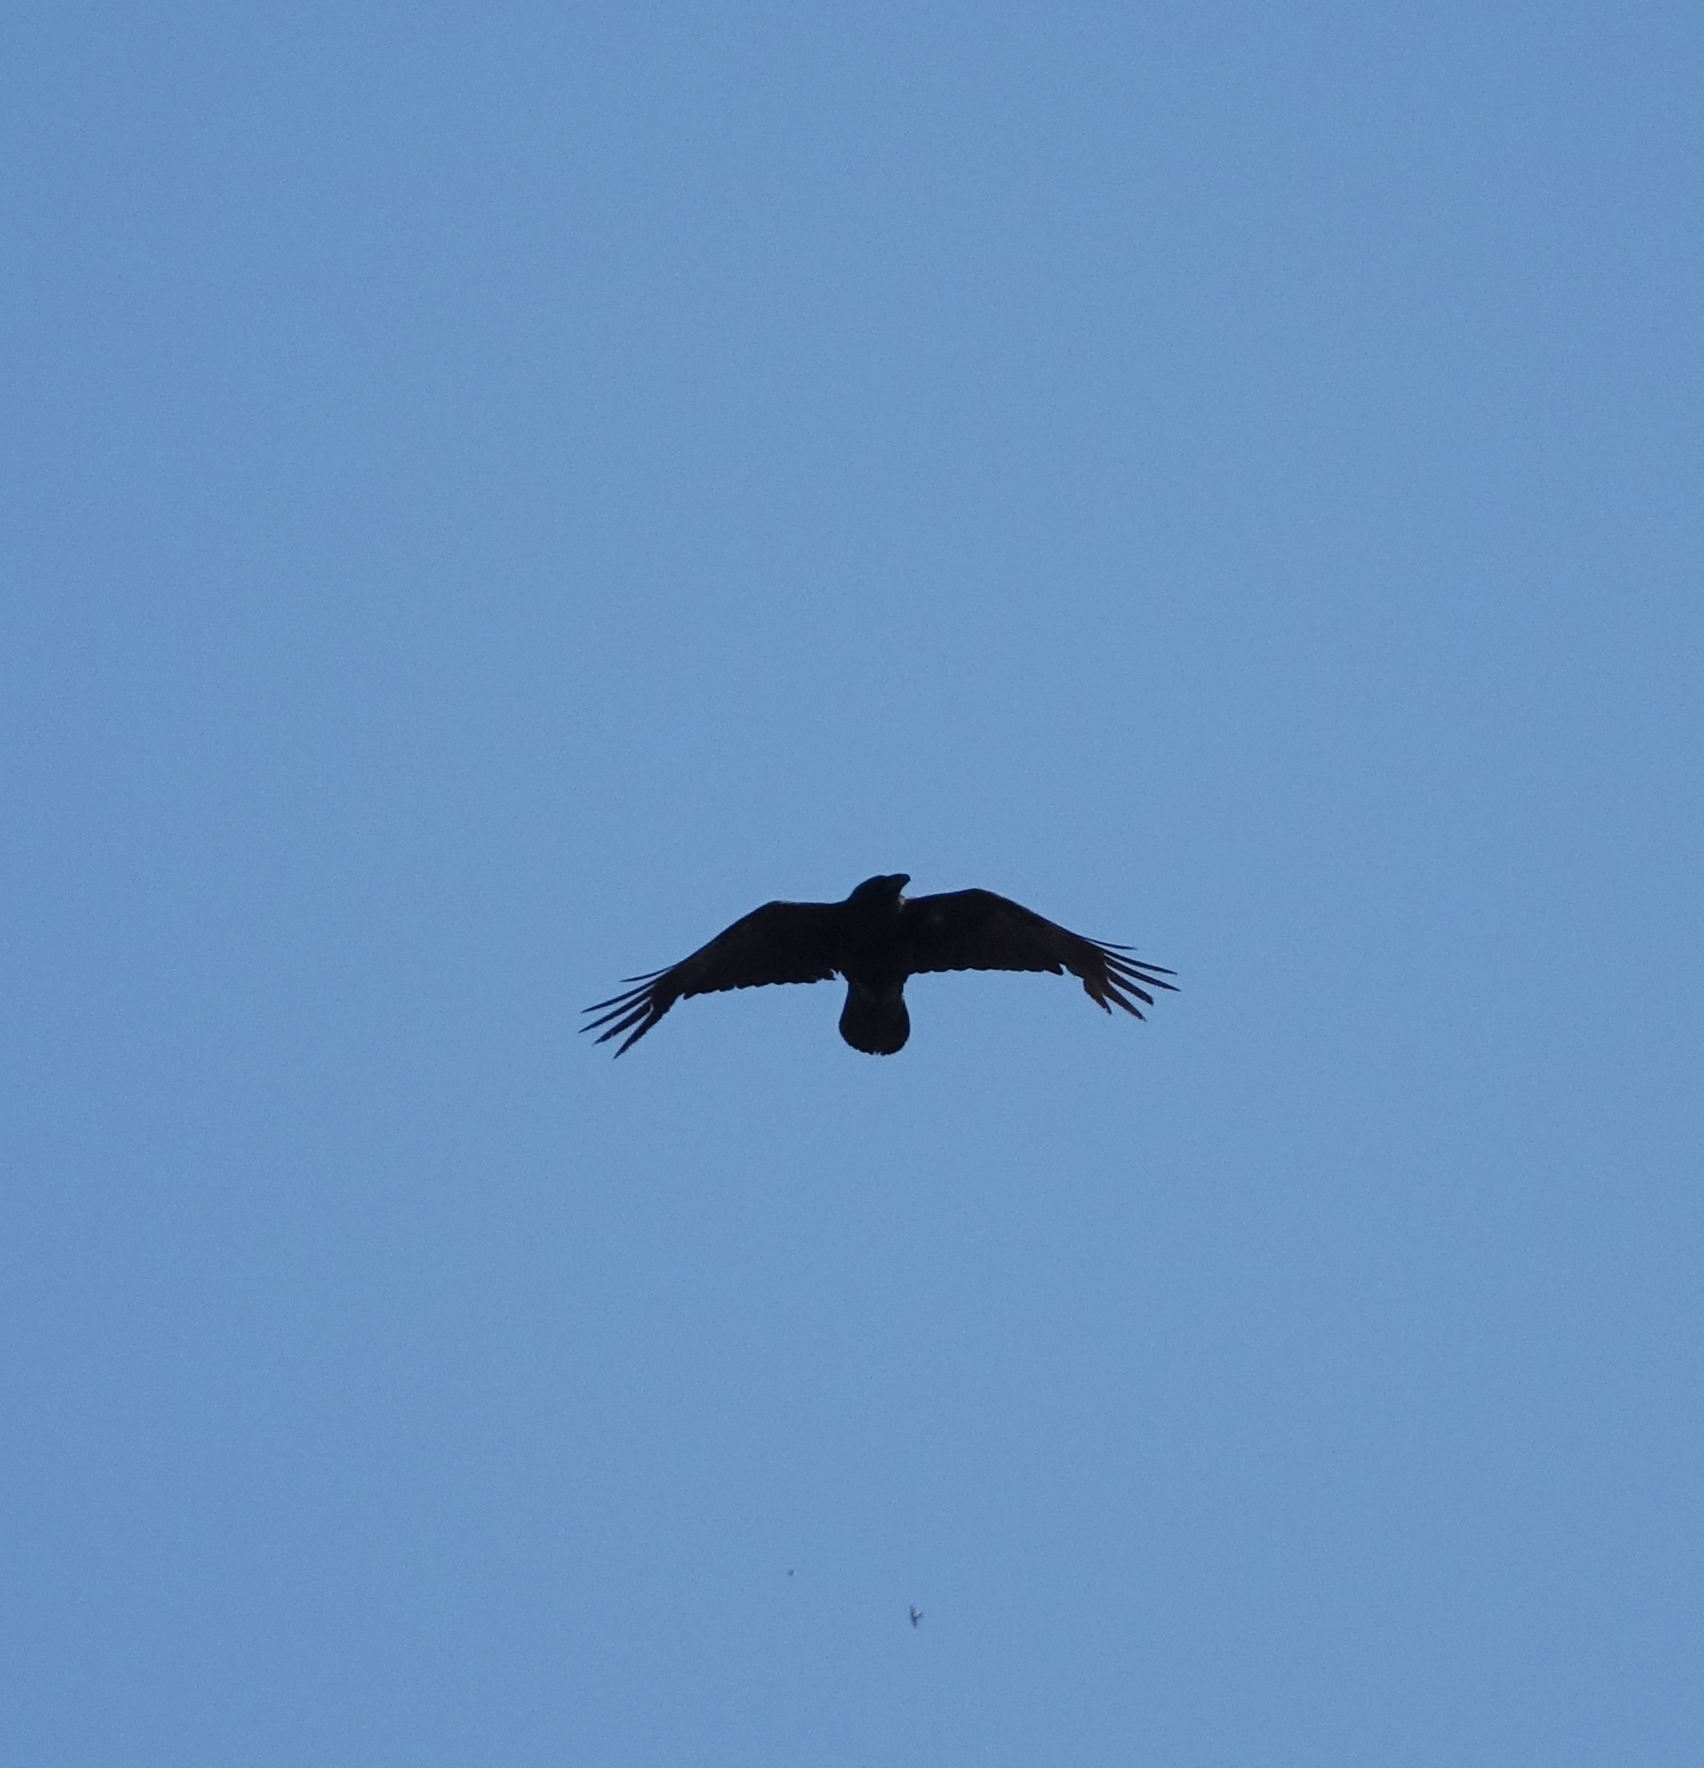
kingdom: Animalia
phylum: Chordata
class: Aves
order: Passeriformes
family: Corvidae
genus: Corvus
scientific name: Corvus corax
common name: Common raven
